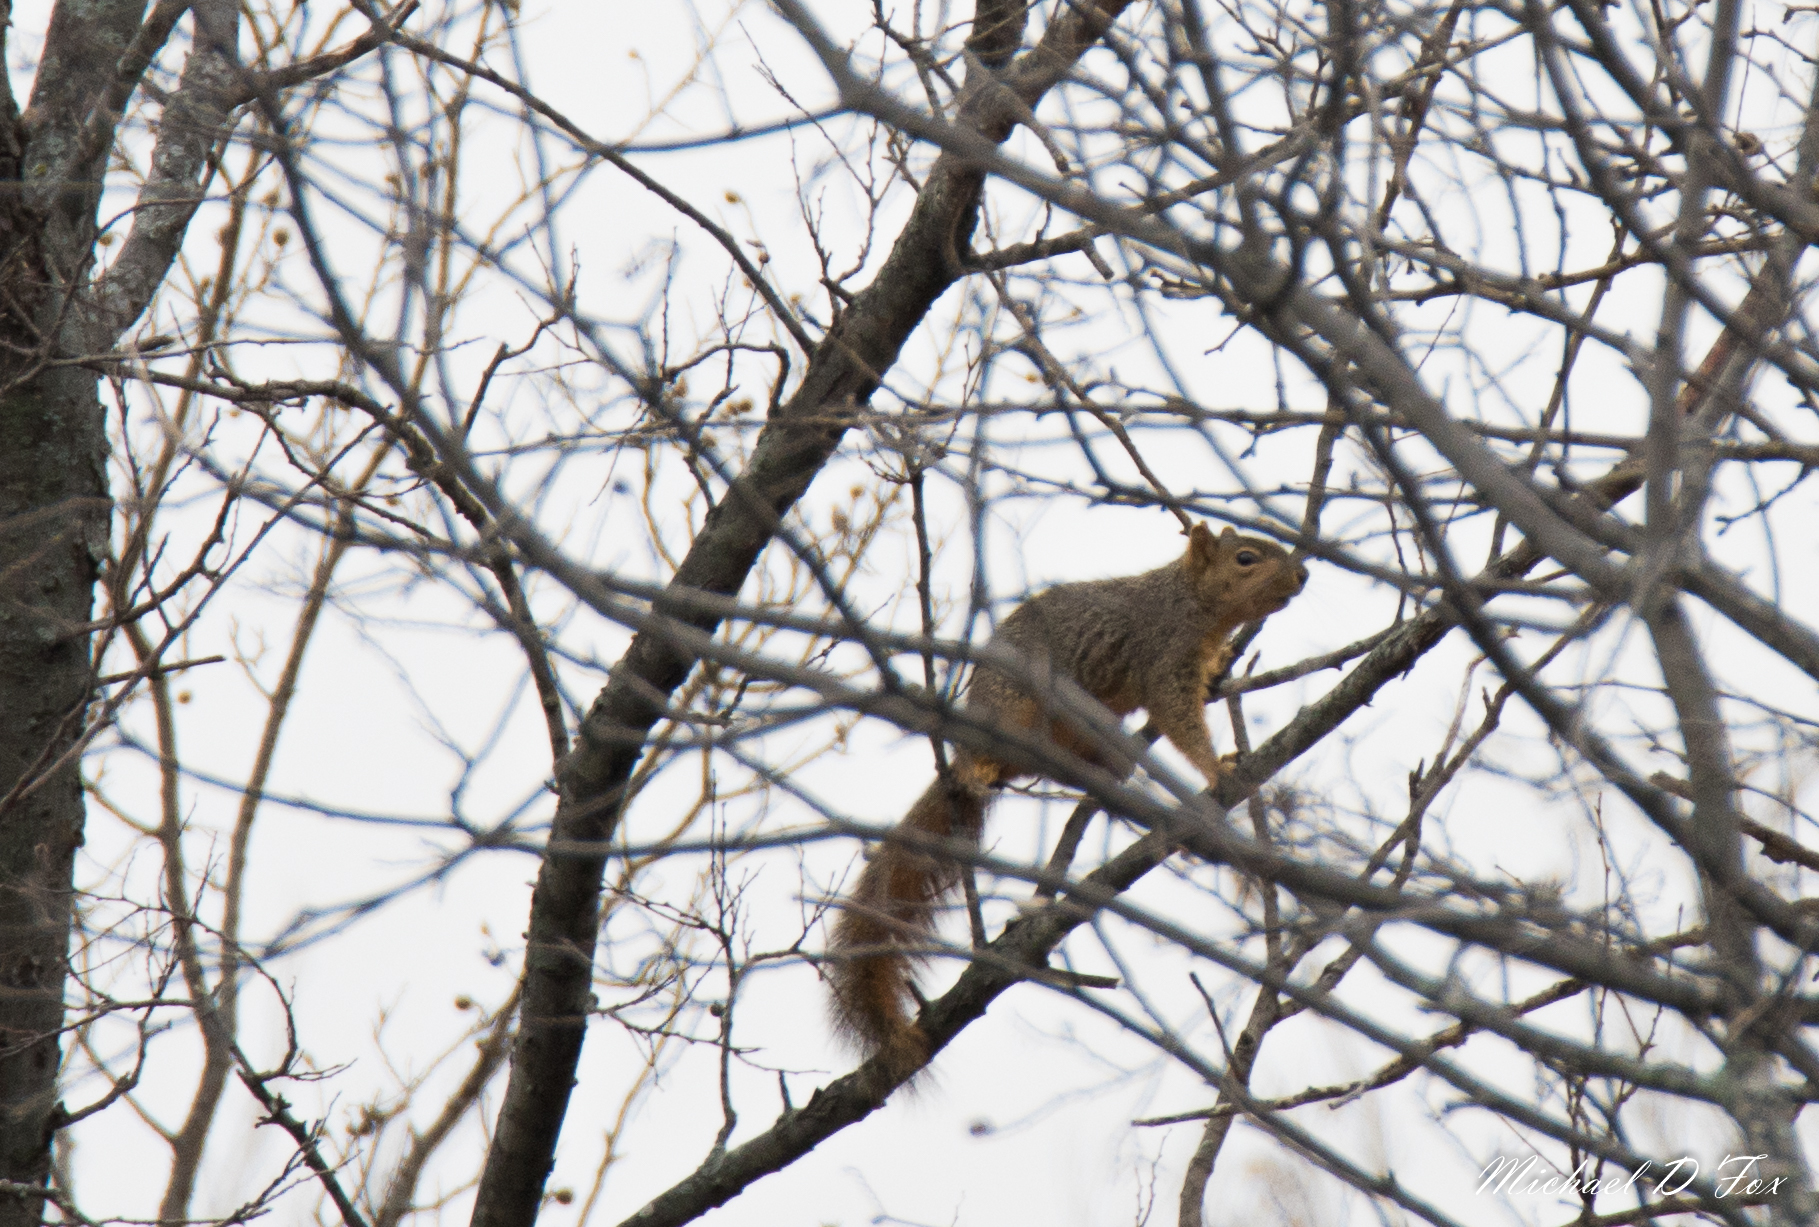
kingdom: Animalia
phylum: Chordata
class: Mammalia
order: Rodentia
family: Sciuridae
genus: Sciurus
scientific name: Sciurus niger
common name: Fox squirrel
